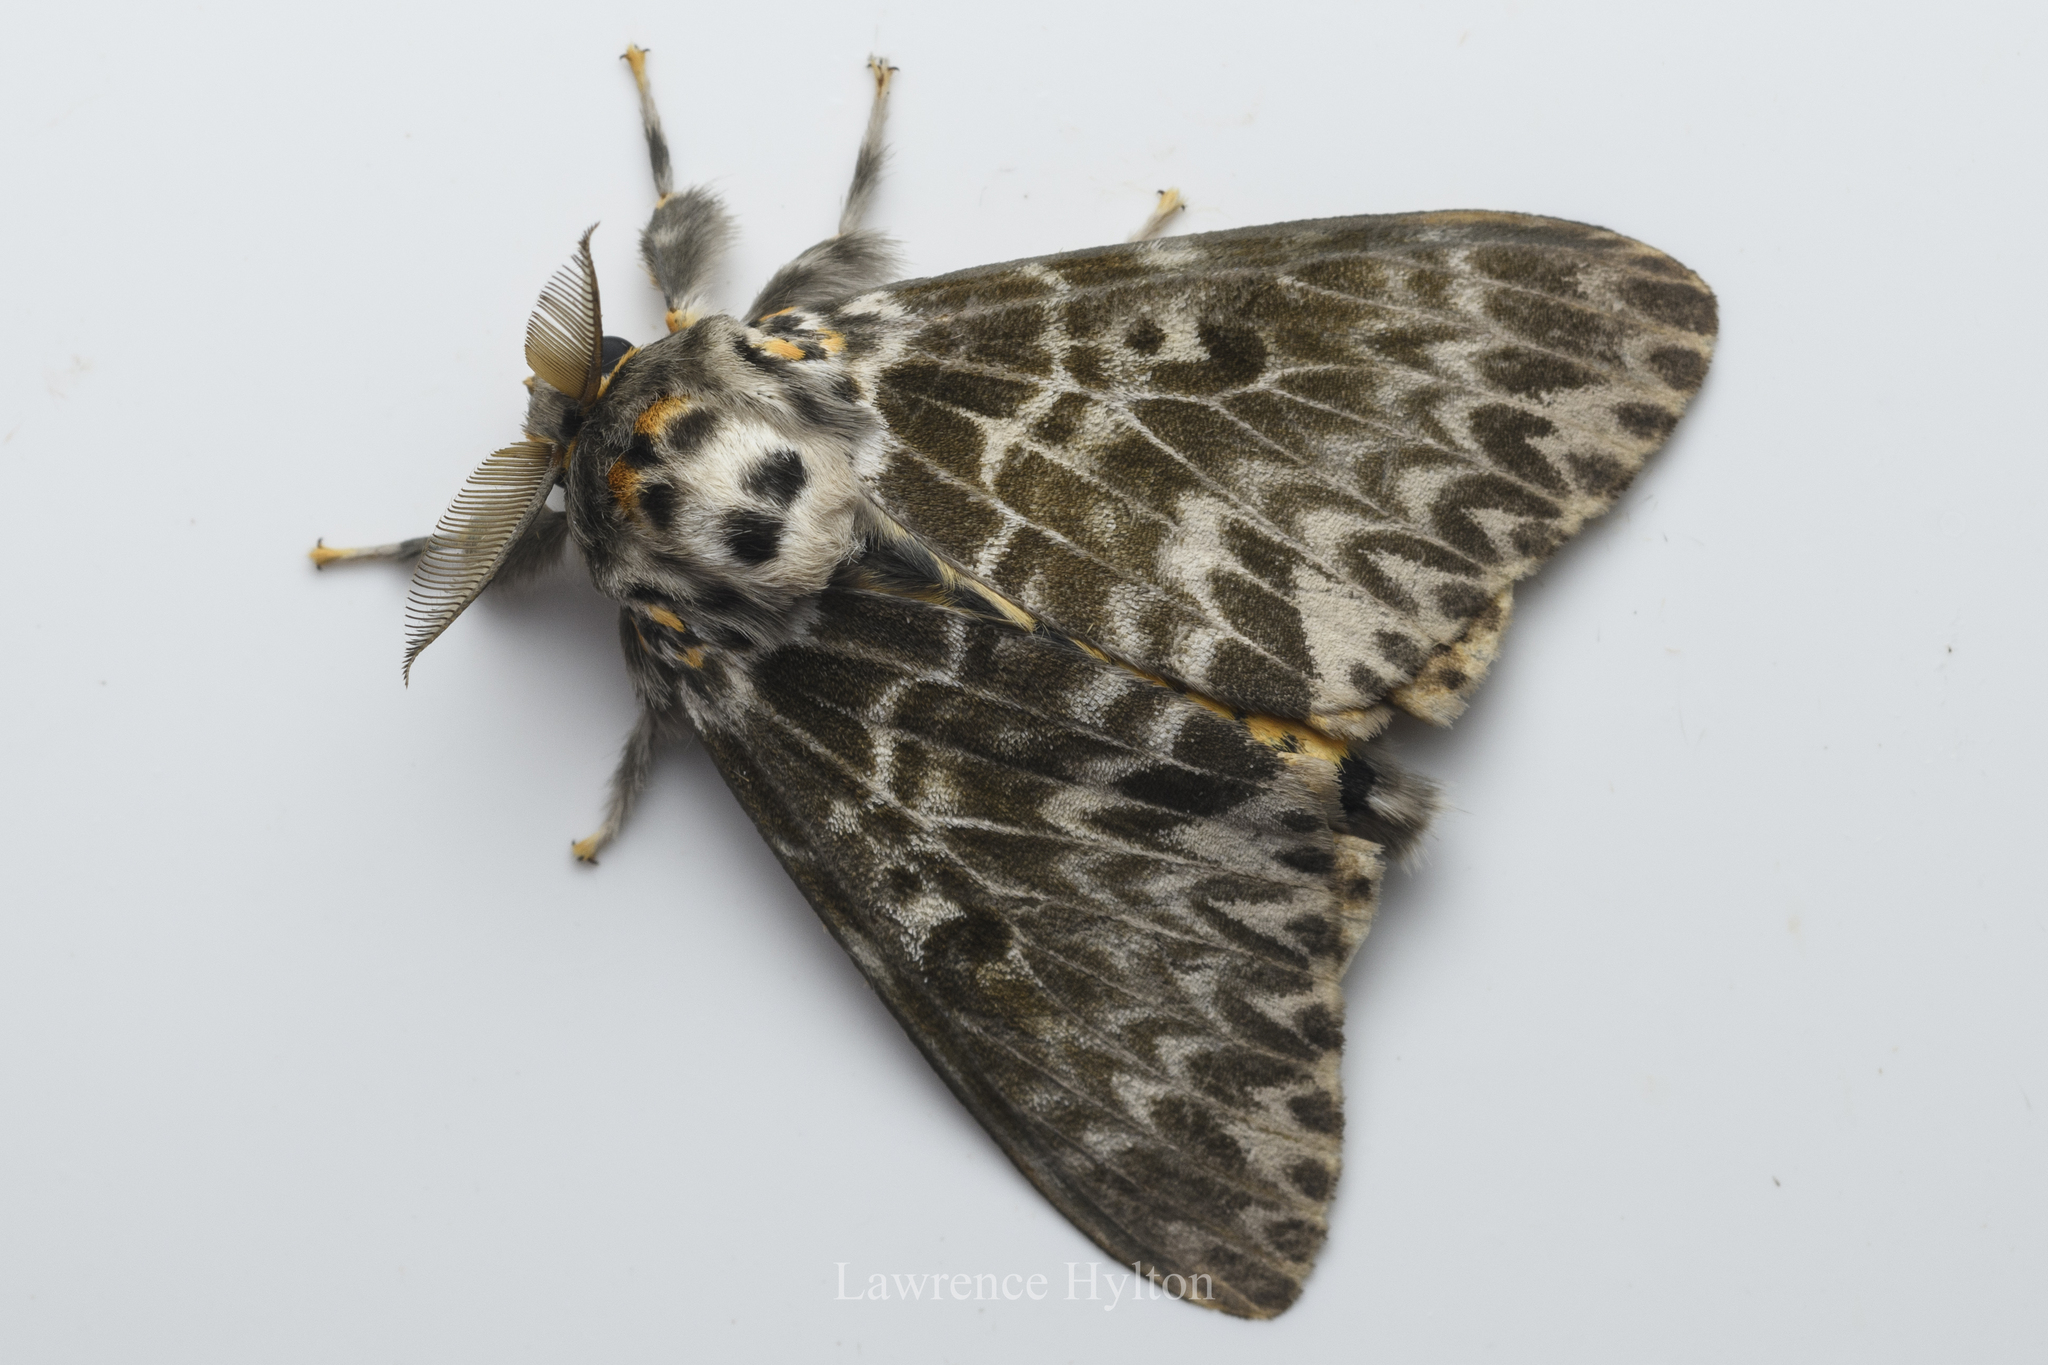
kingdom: Animalia
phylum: Arthropoda
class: Insecta
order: Lepidoptera
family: Erebidae
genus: Lymantria
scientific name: Lymantria mathura
